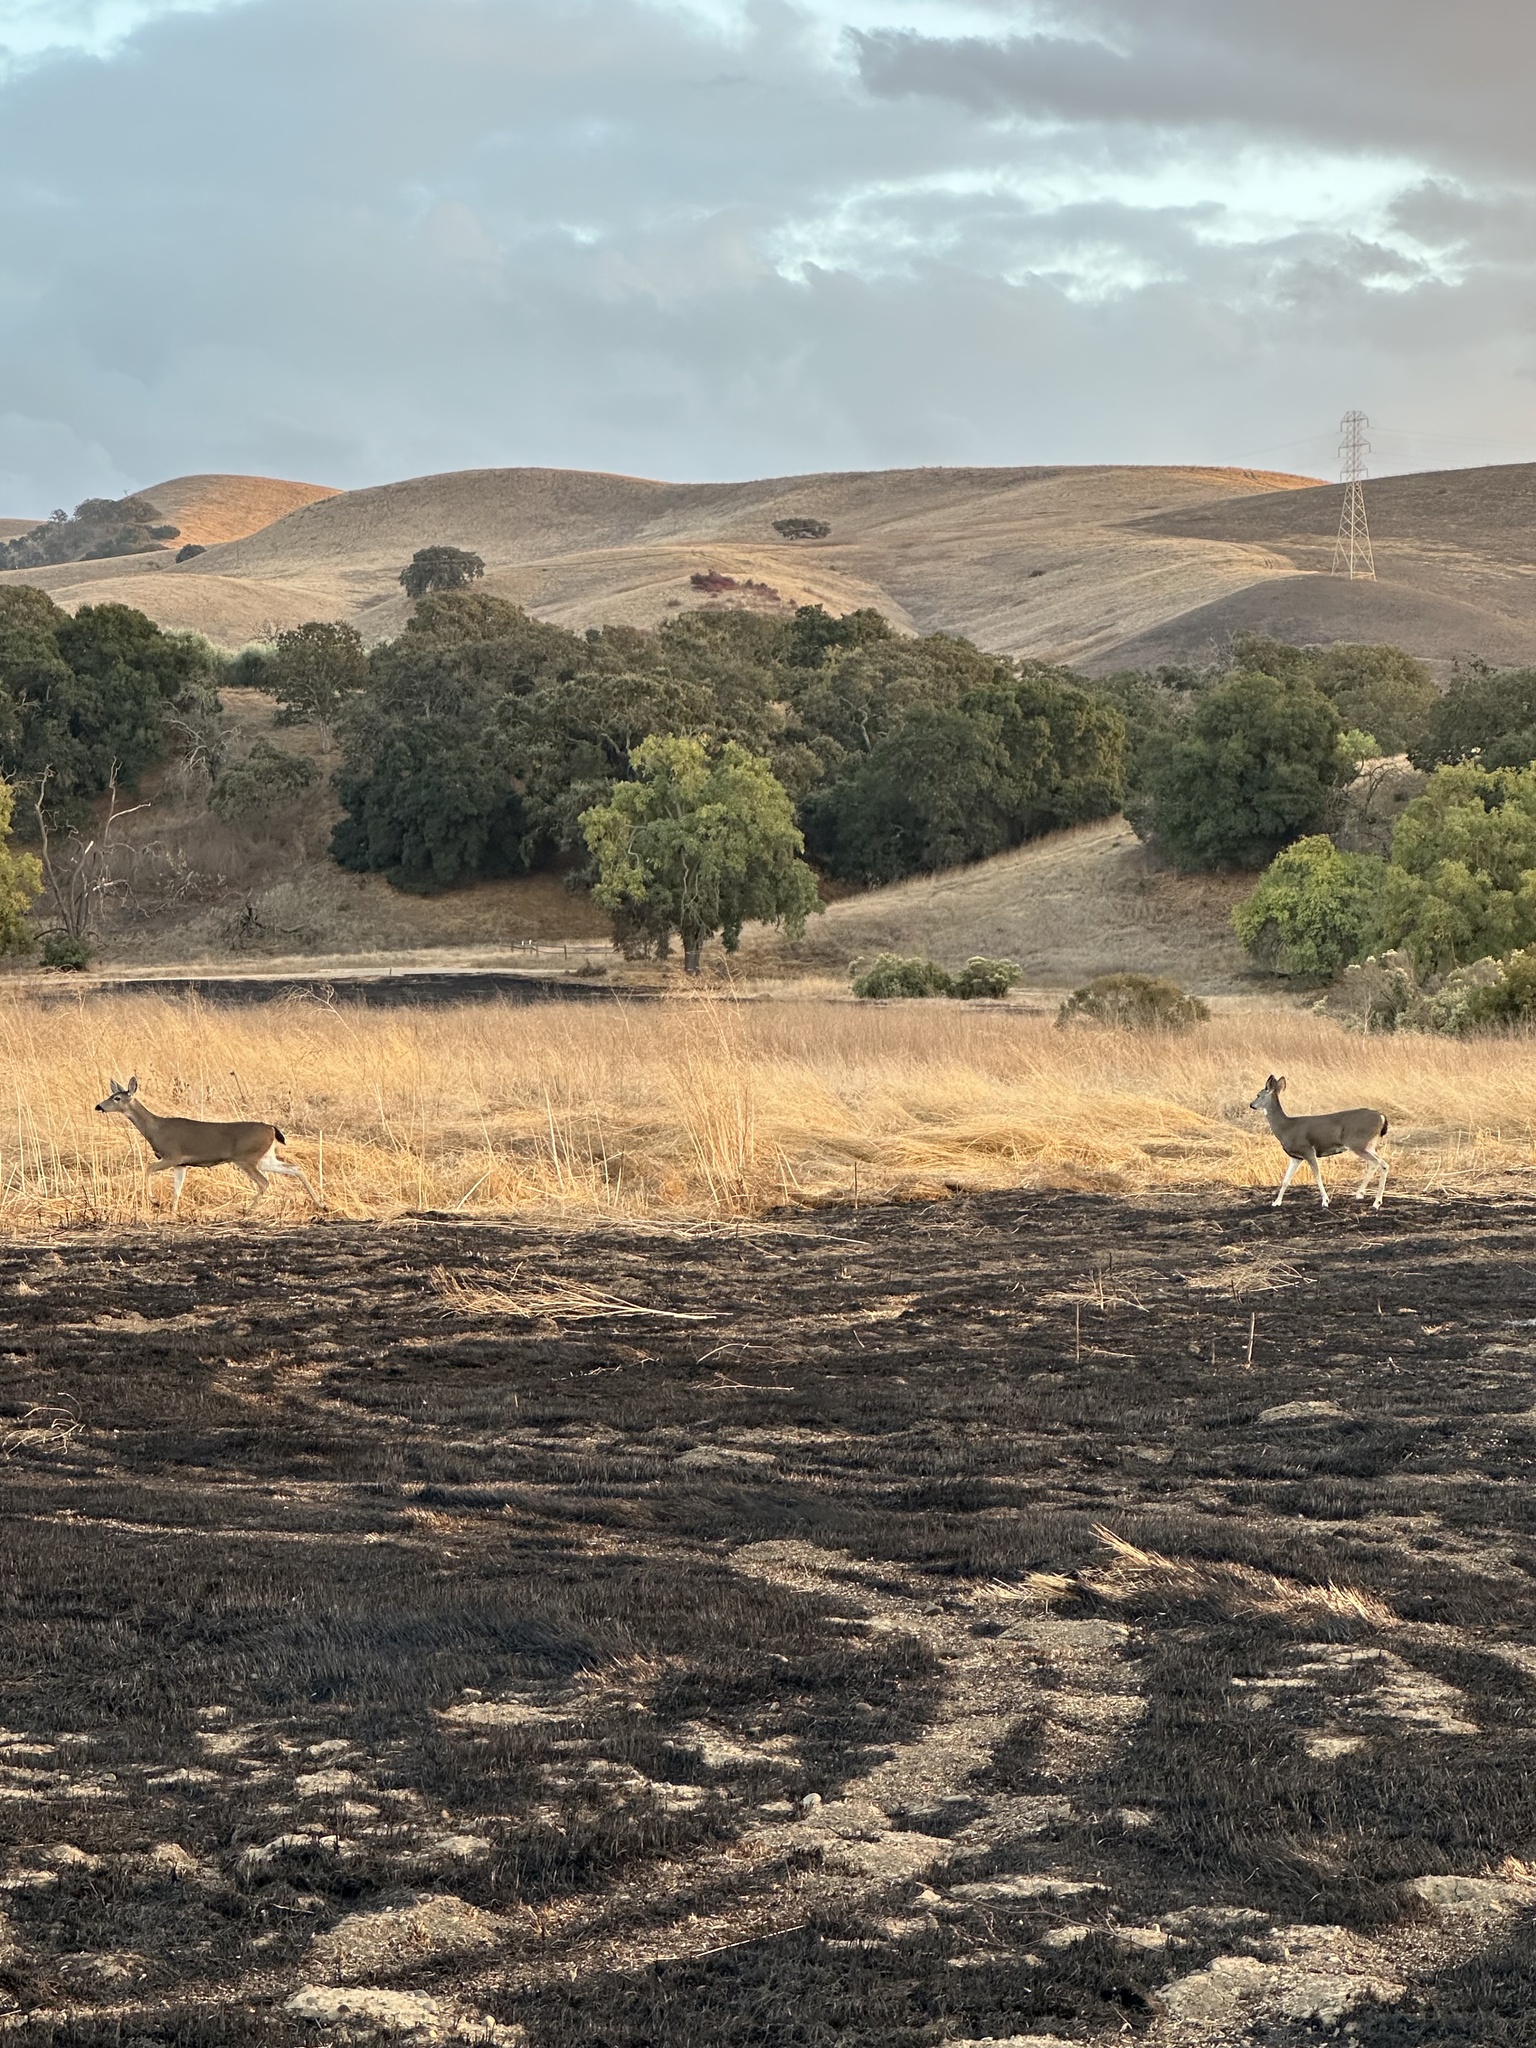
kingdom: Animalia
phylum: Chordata
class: Mammalia
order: Artiodactyla
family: Cervidae
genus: Odocoileus
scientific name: Odocoileus hemionus
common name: Mule deer
